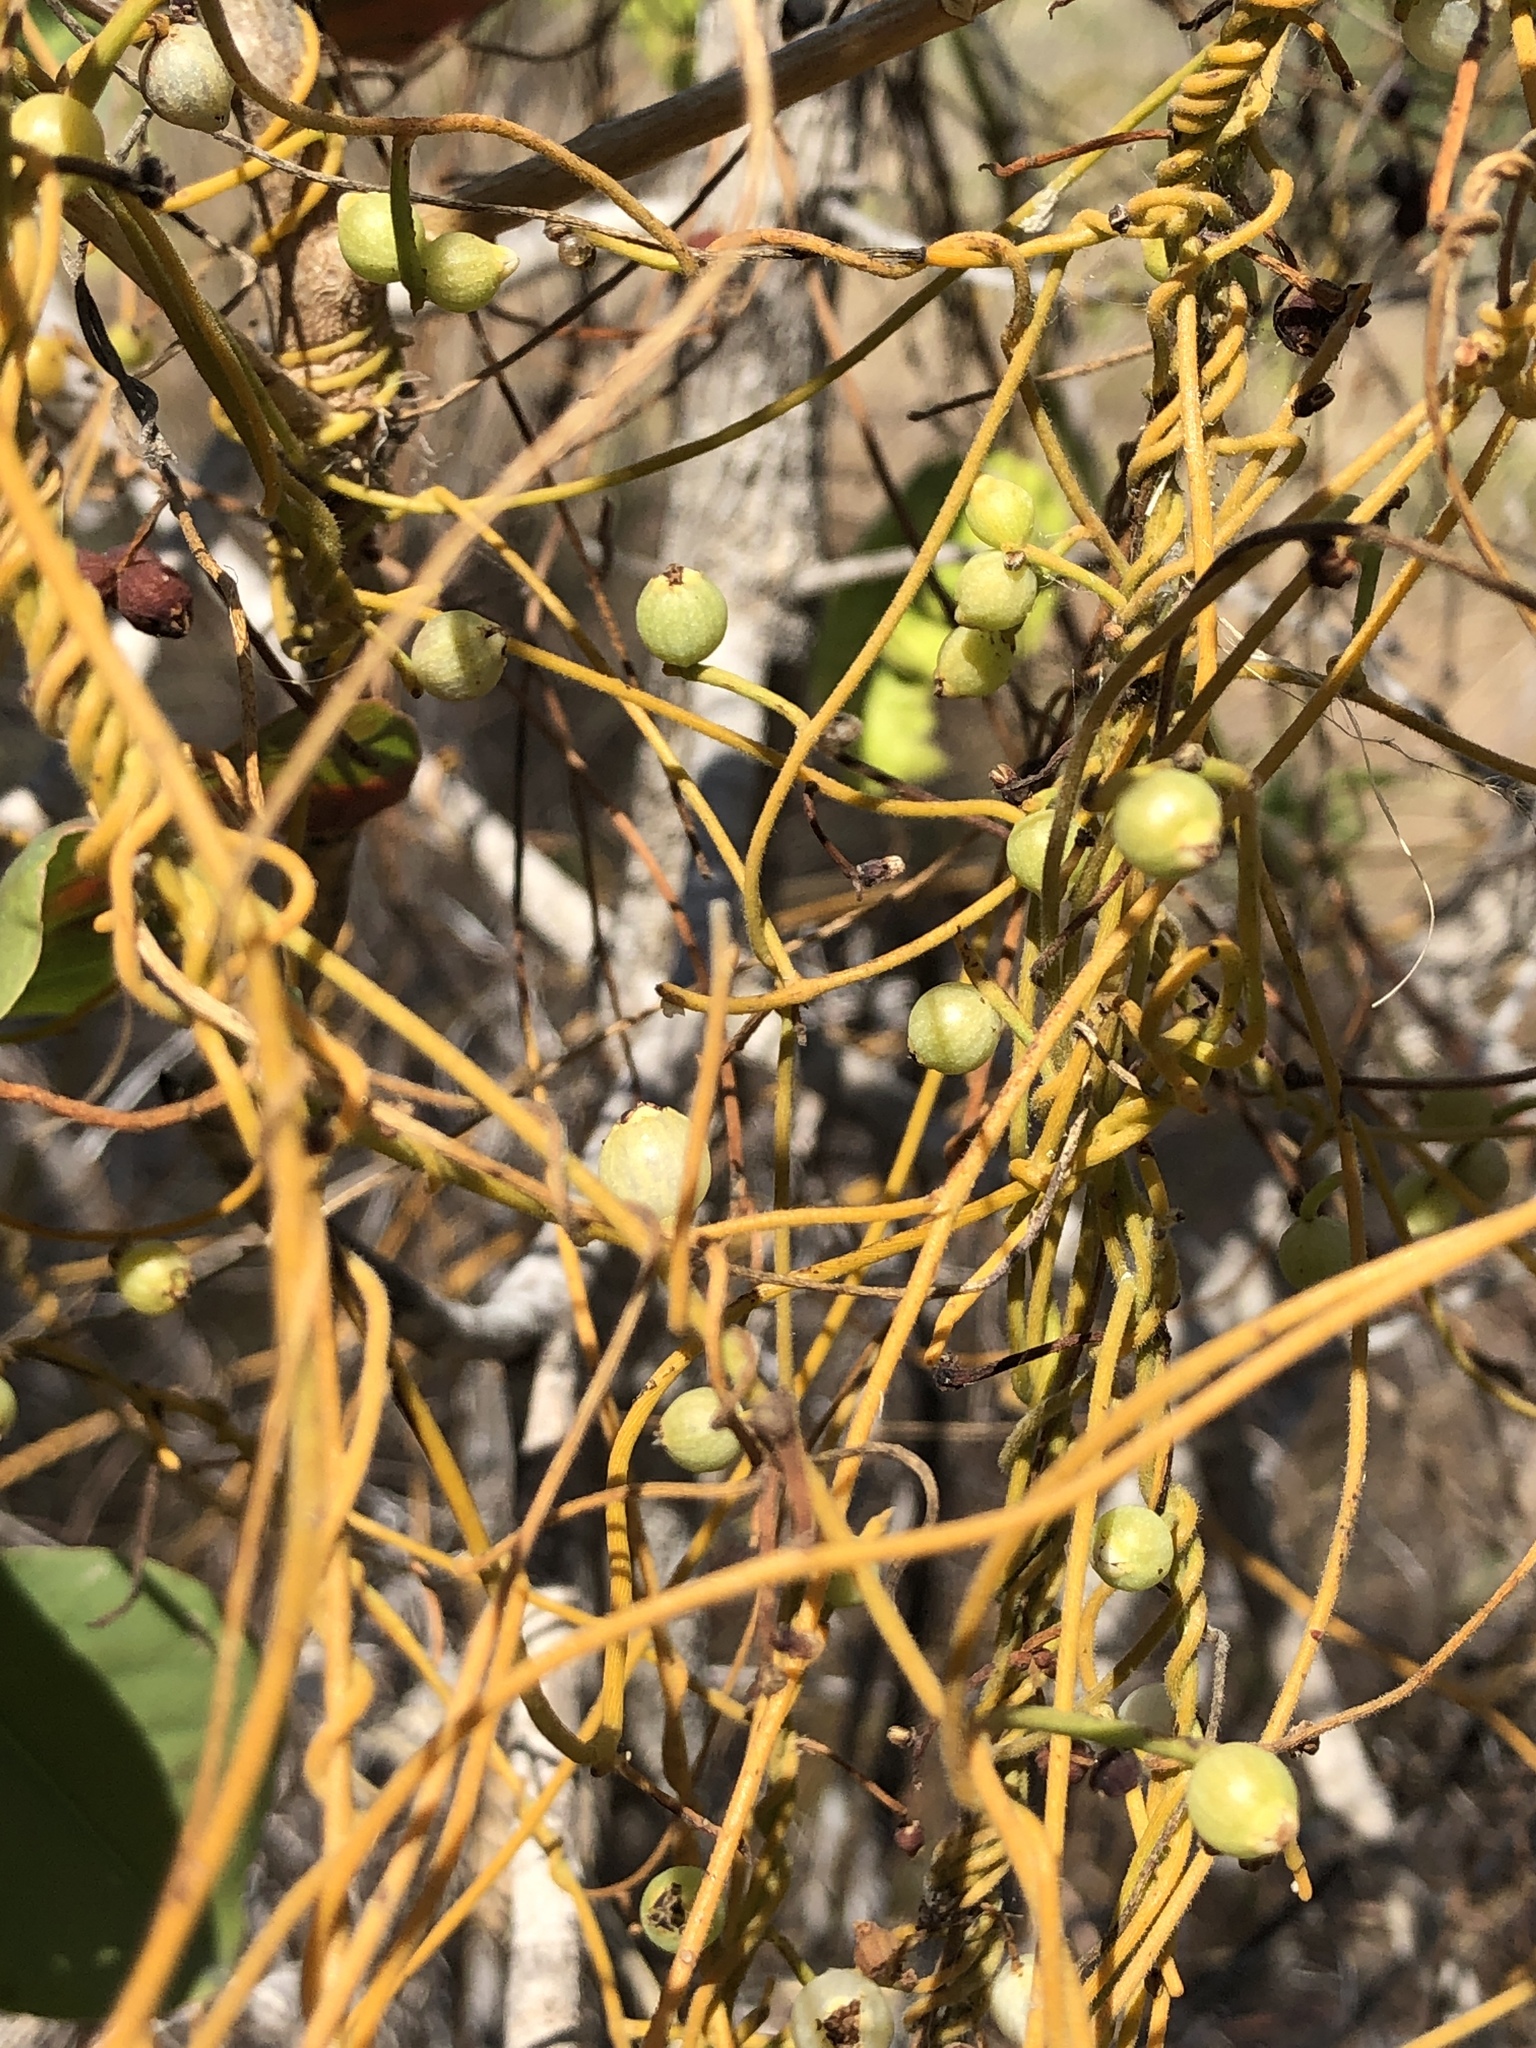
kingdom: Plantae
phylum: Tracheophyta
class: Magnoliopsida
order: Laurales
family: Lauraceae
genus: Cassytha
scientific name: Cassytha filiformis
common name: Dodder-laurel
